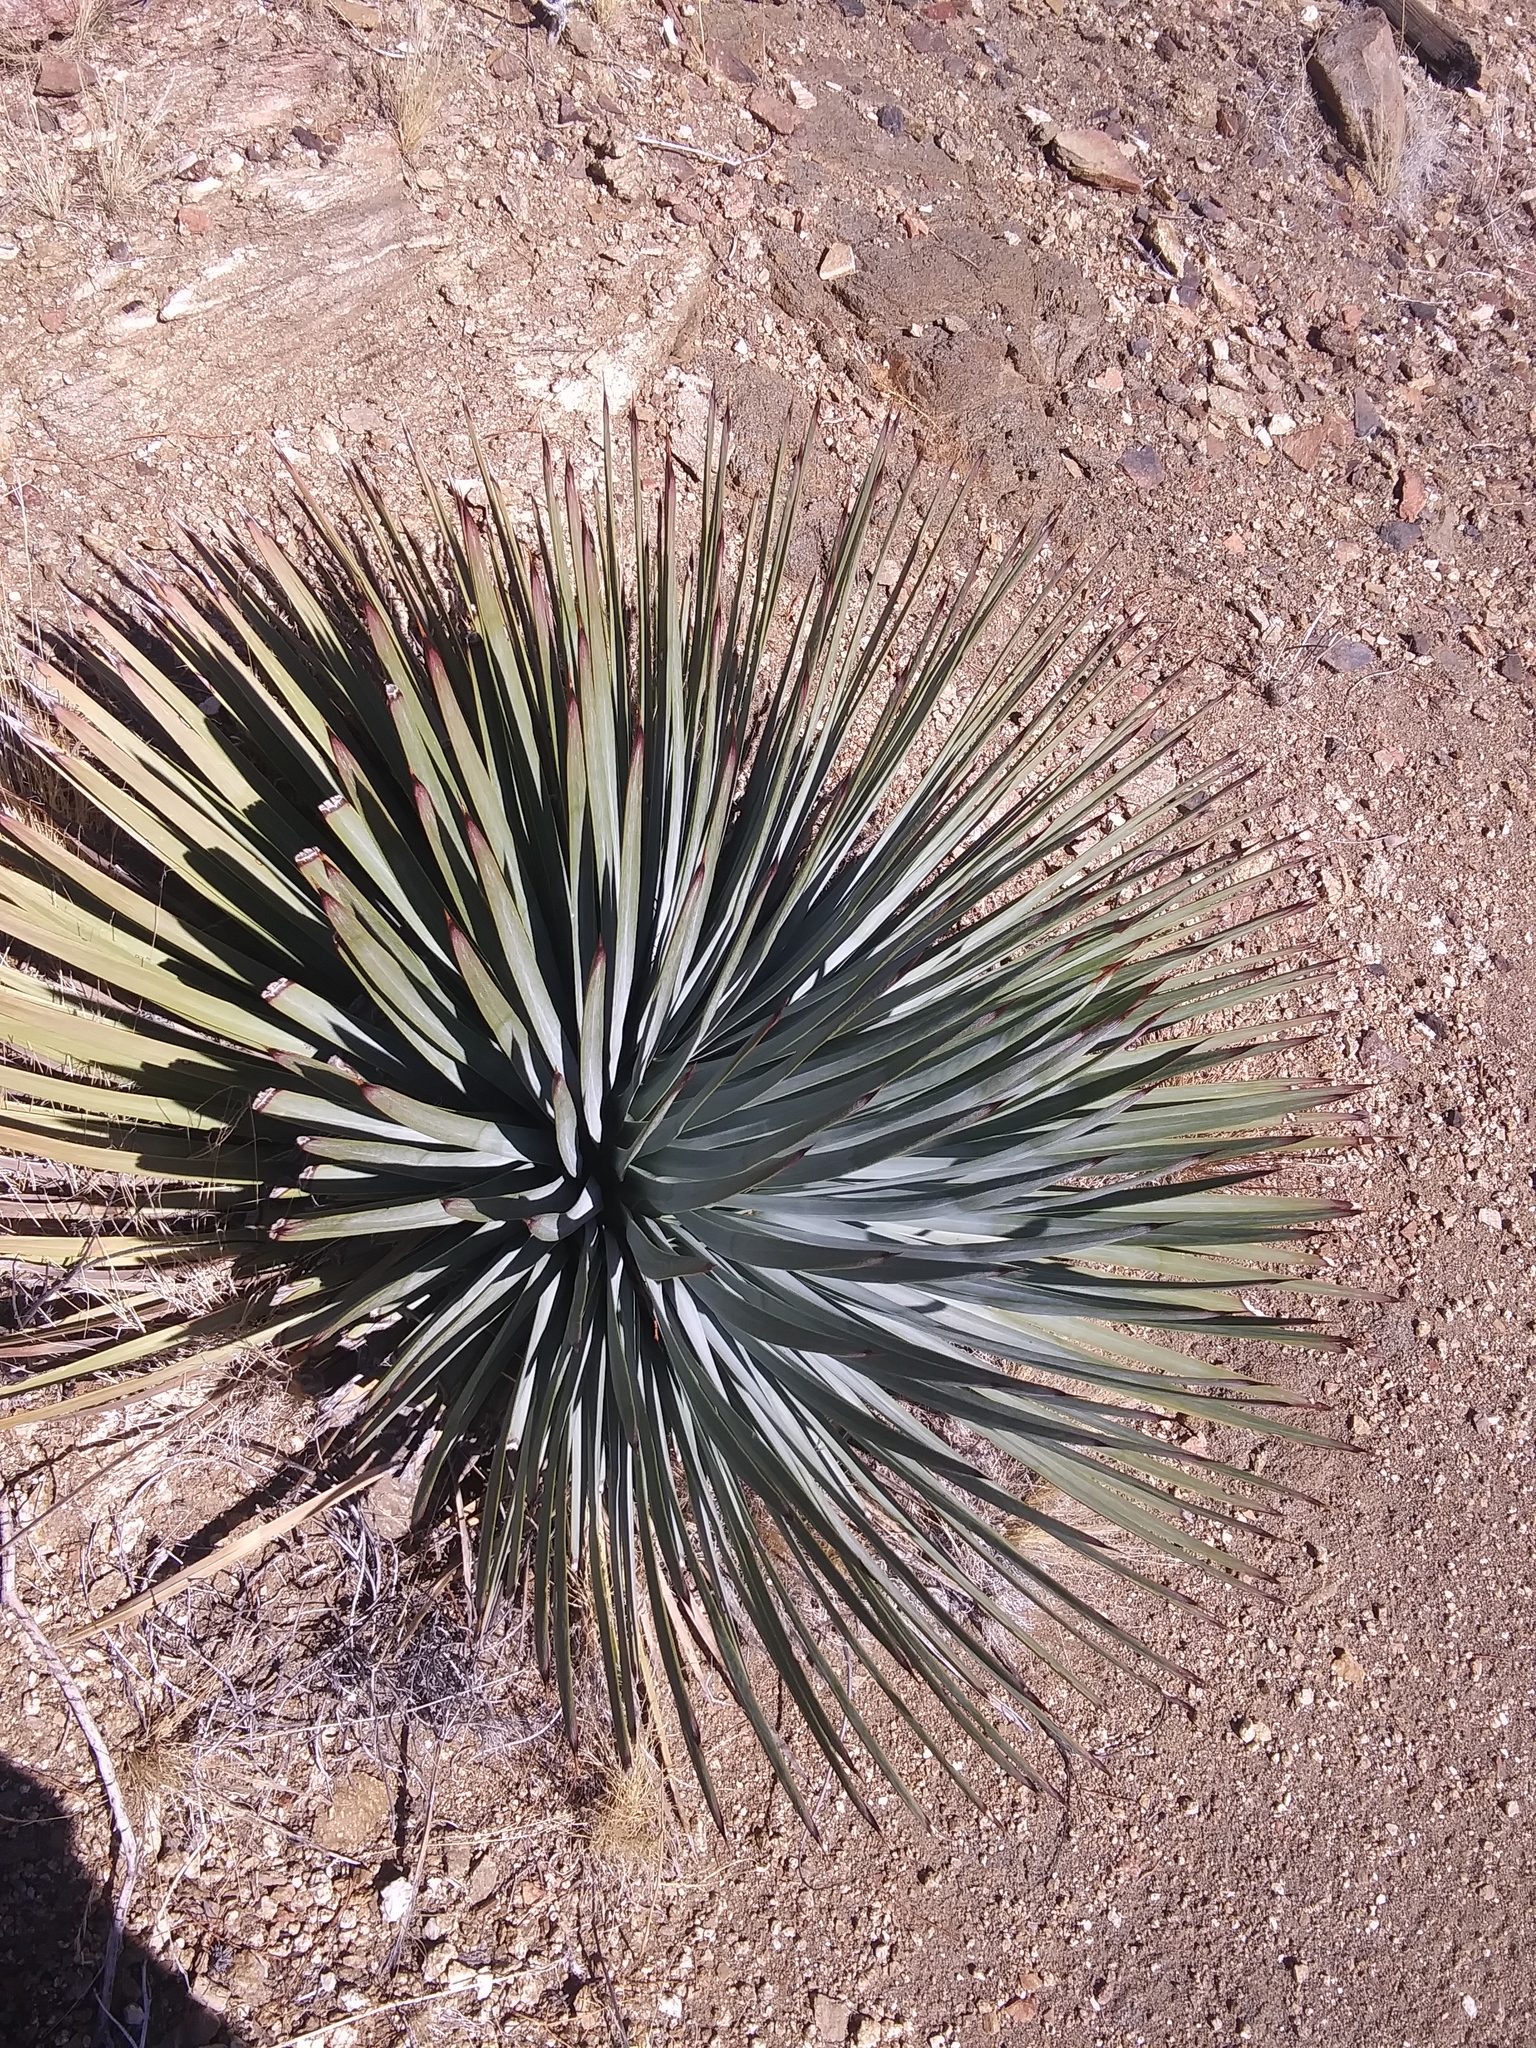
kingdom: Plantae
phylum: Tracheophyta
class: Liliopsida
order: Asparagales
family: Asparagaceae
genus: Hesperoyucca
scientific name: Hesperoyucca whipplei
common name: Our lord's-candle
